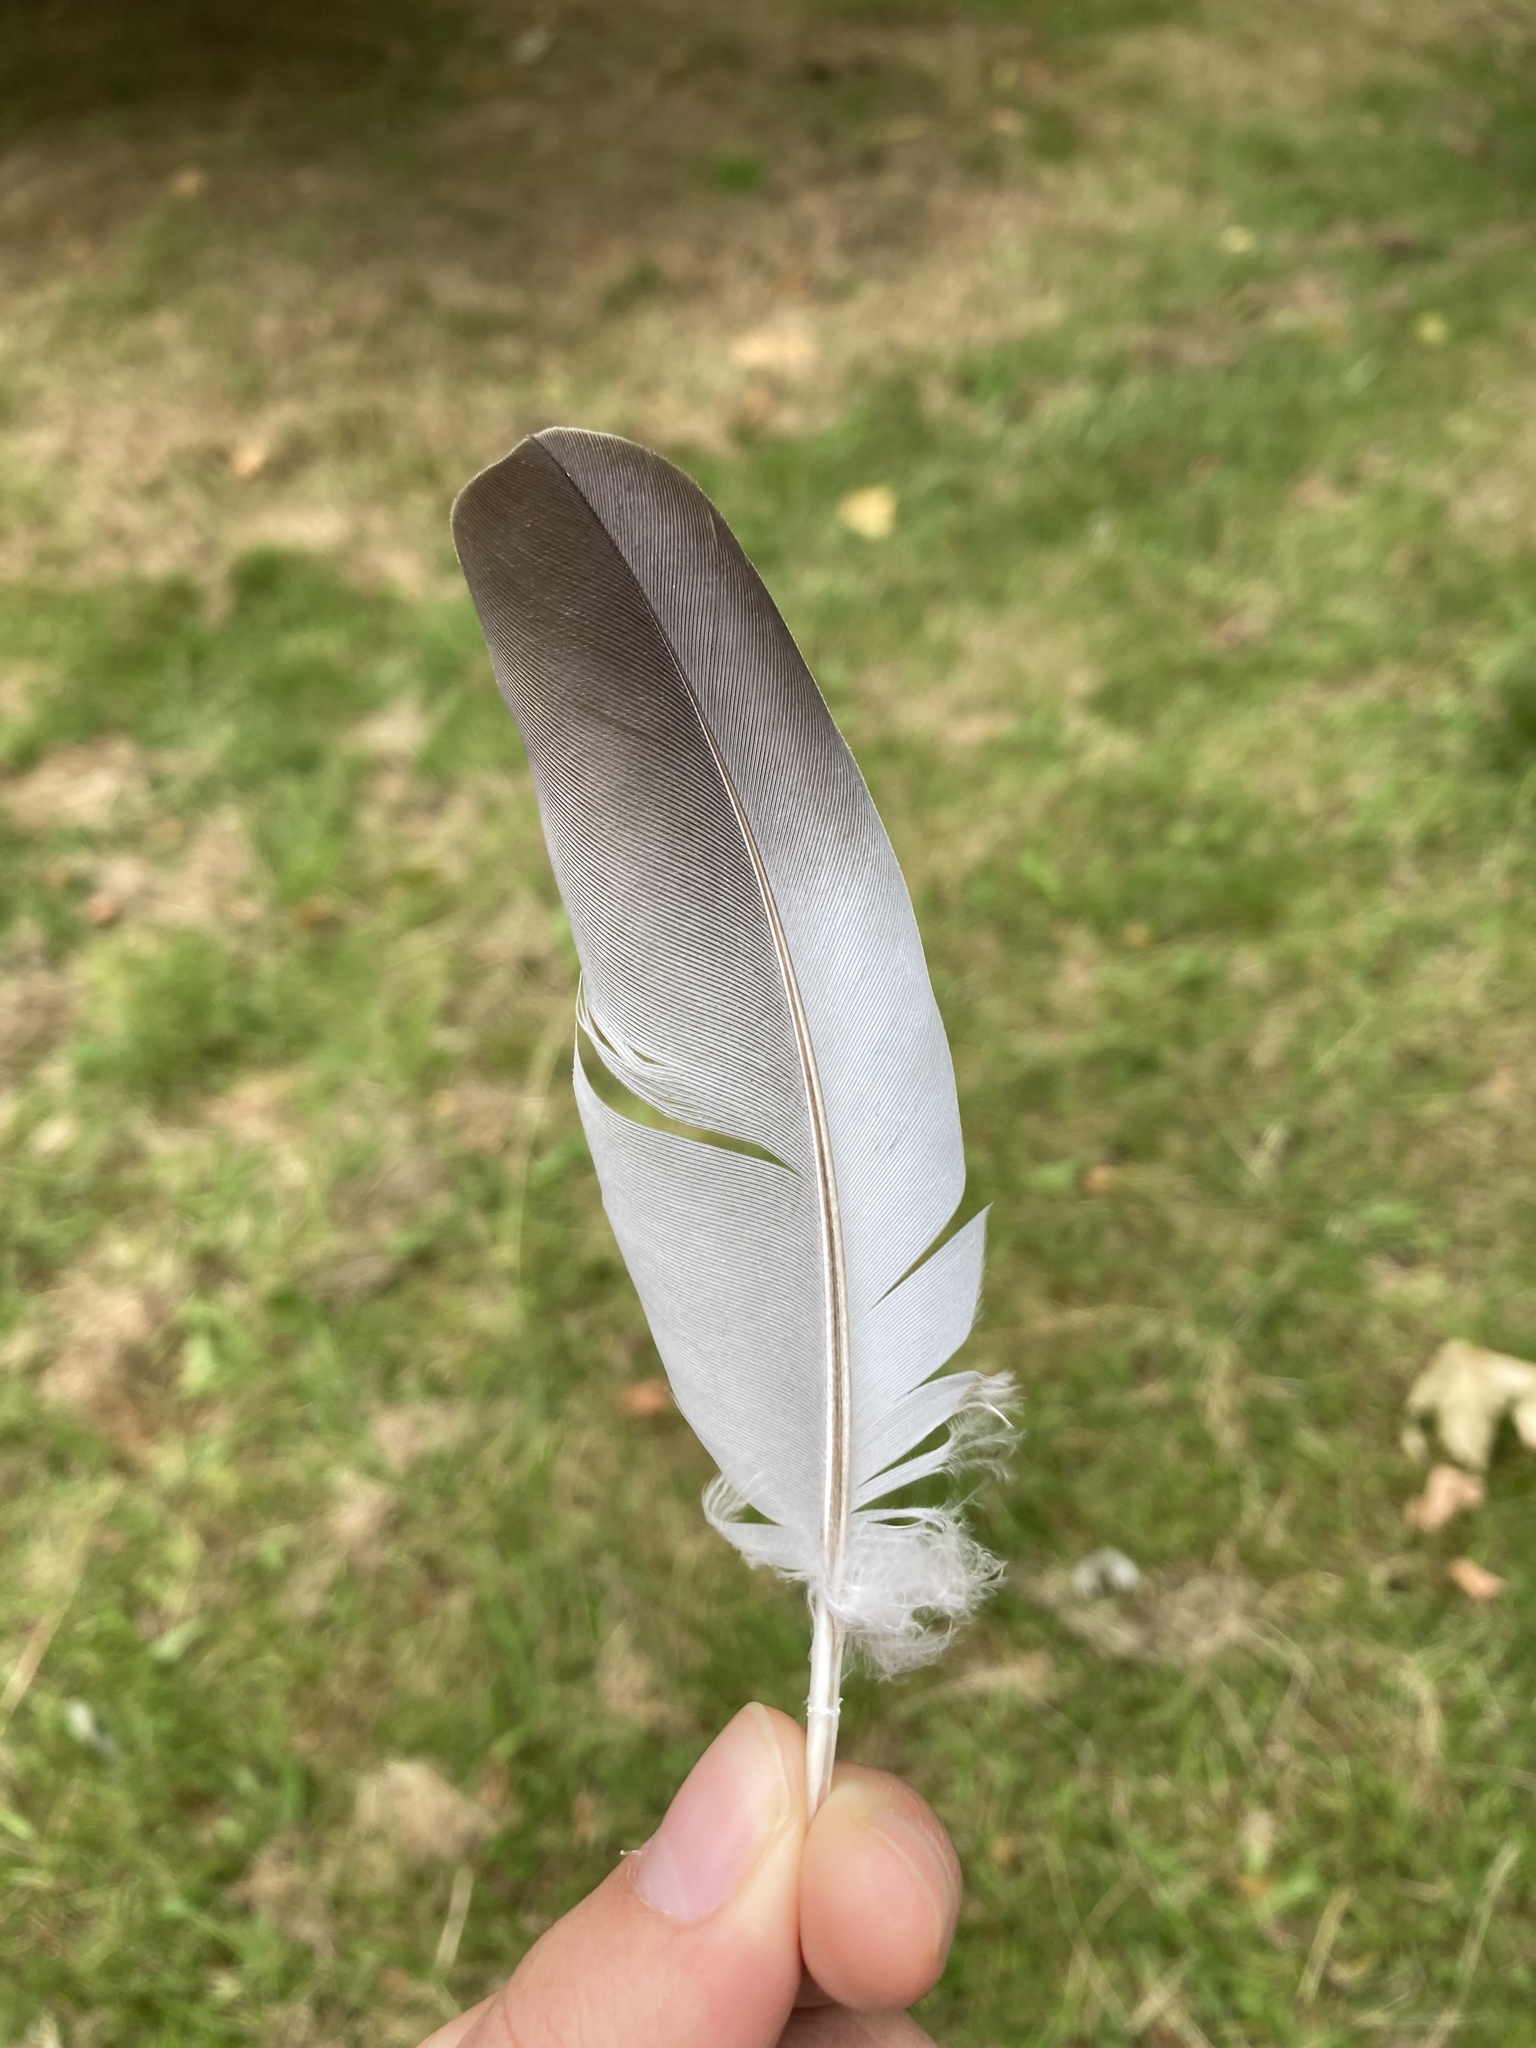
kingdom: Animalia
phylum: Chordata
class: Aves
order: Columbiformes
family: Columbidae
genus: Columba
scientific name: Columba oenas
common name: Stock dove
